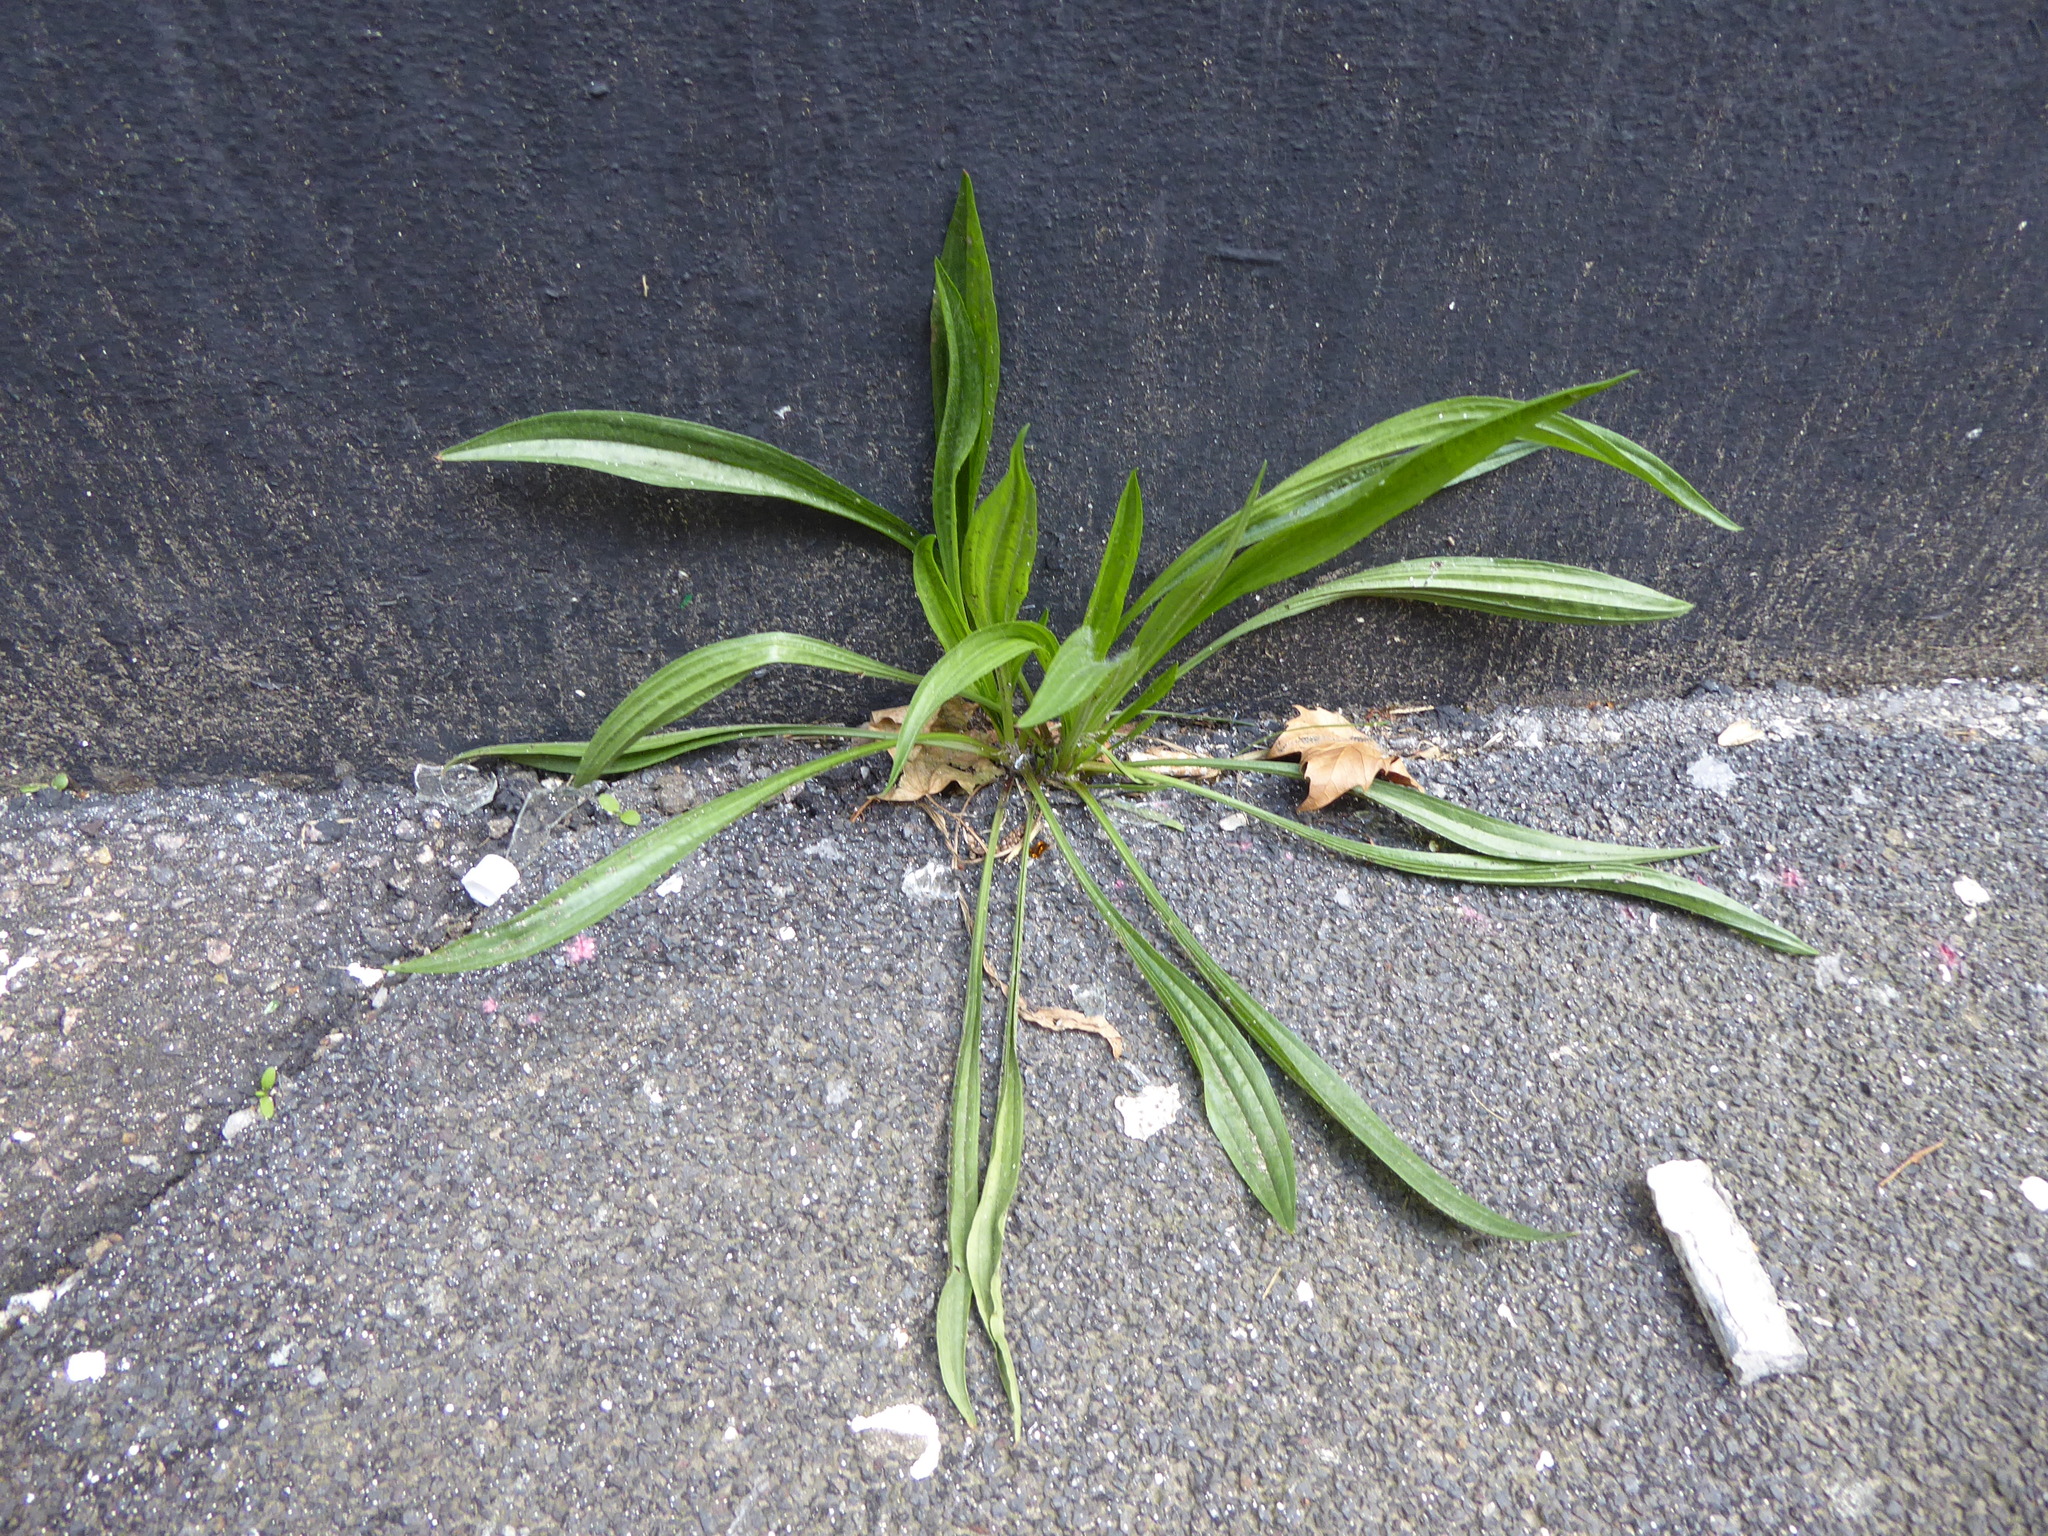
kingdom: Plantae
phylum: Tracheophyta
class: Magnoliopsida
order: Lamiales
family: Plantaginaceae
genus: Plantago
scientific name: Plantago lanceolata
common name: Ribwort plantain
